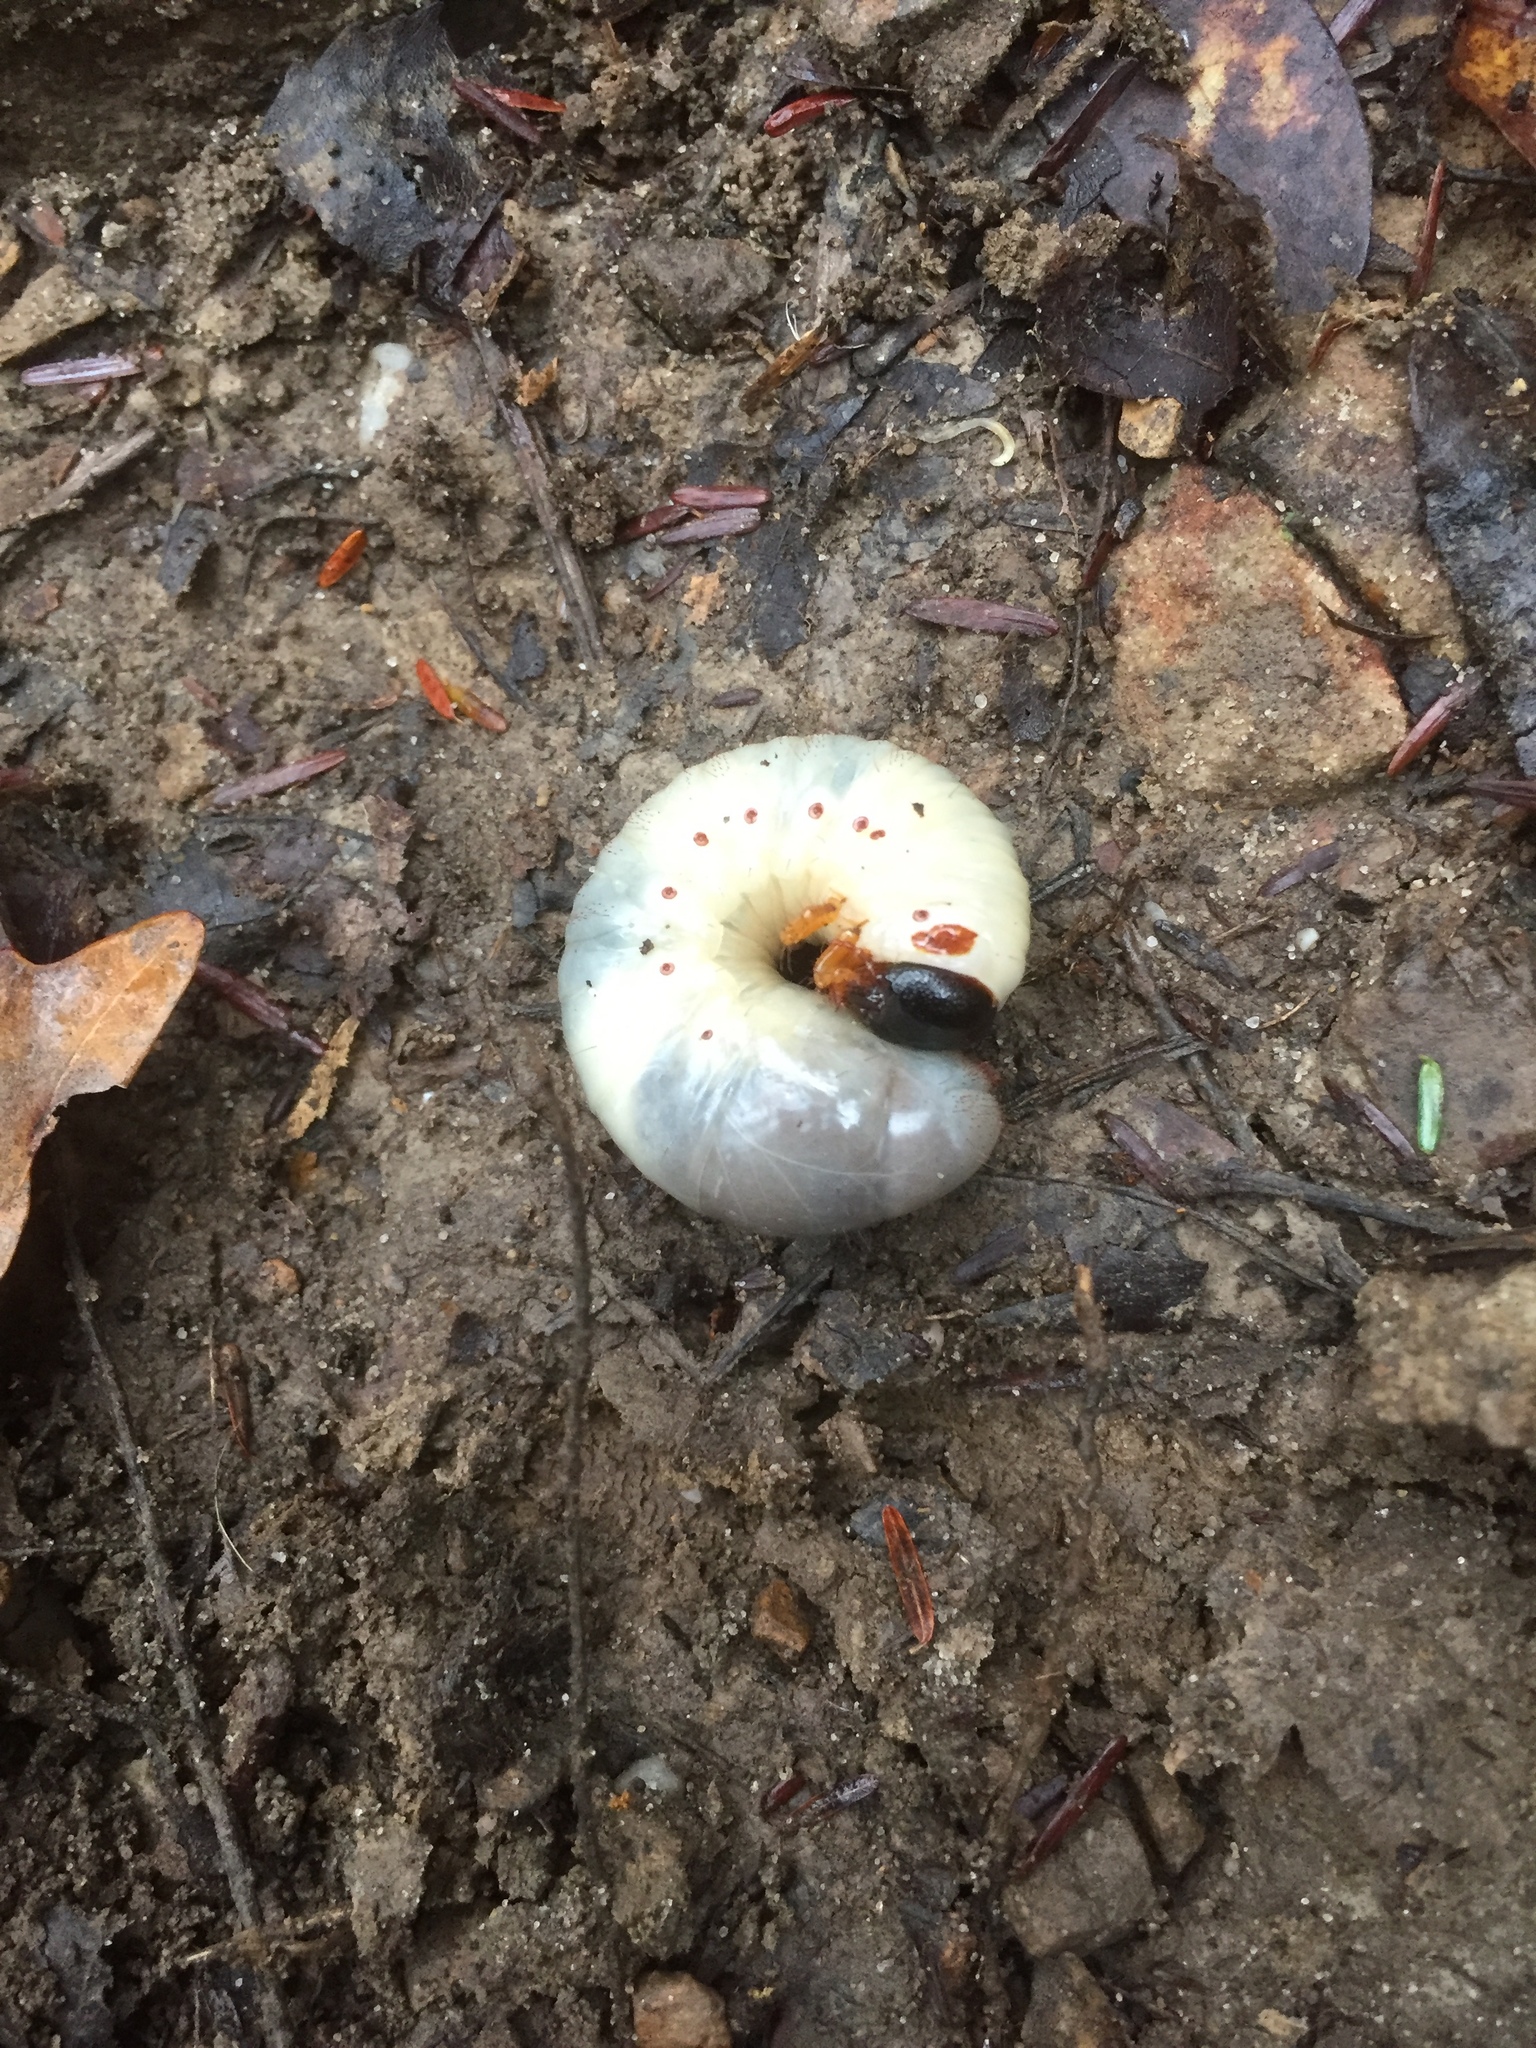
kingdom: Animalia
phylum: Arthropoda
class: Insecta
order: Coleoptera
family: Scarabaeidae
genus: Dynastes
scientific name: Dynastes tityus
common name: Eastern hercules beetle
